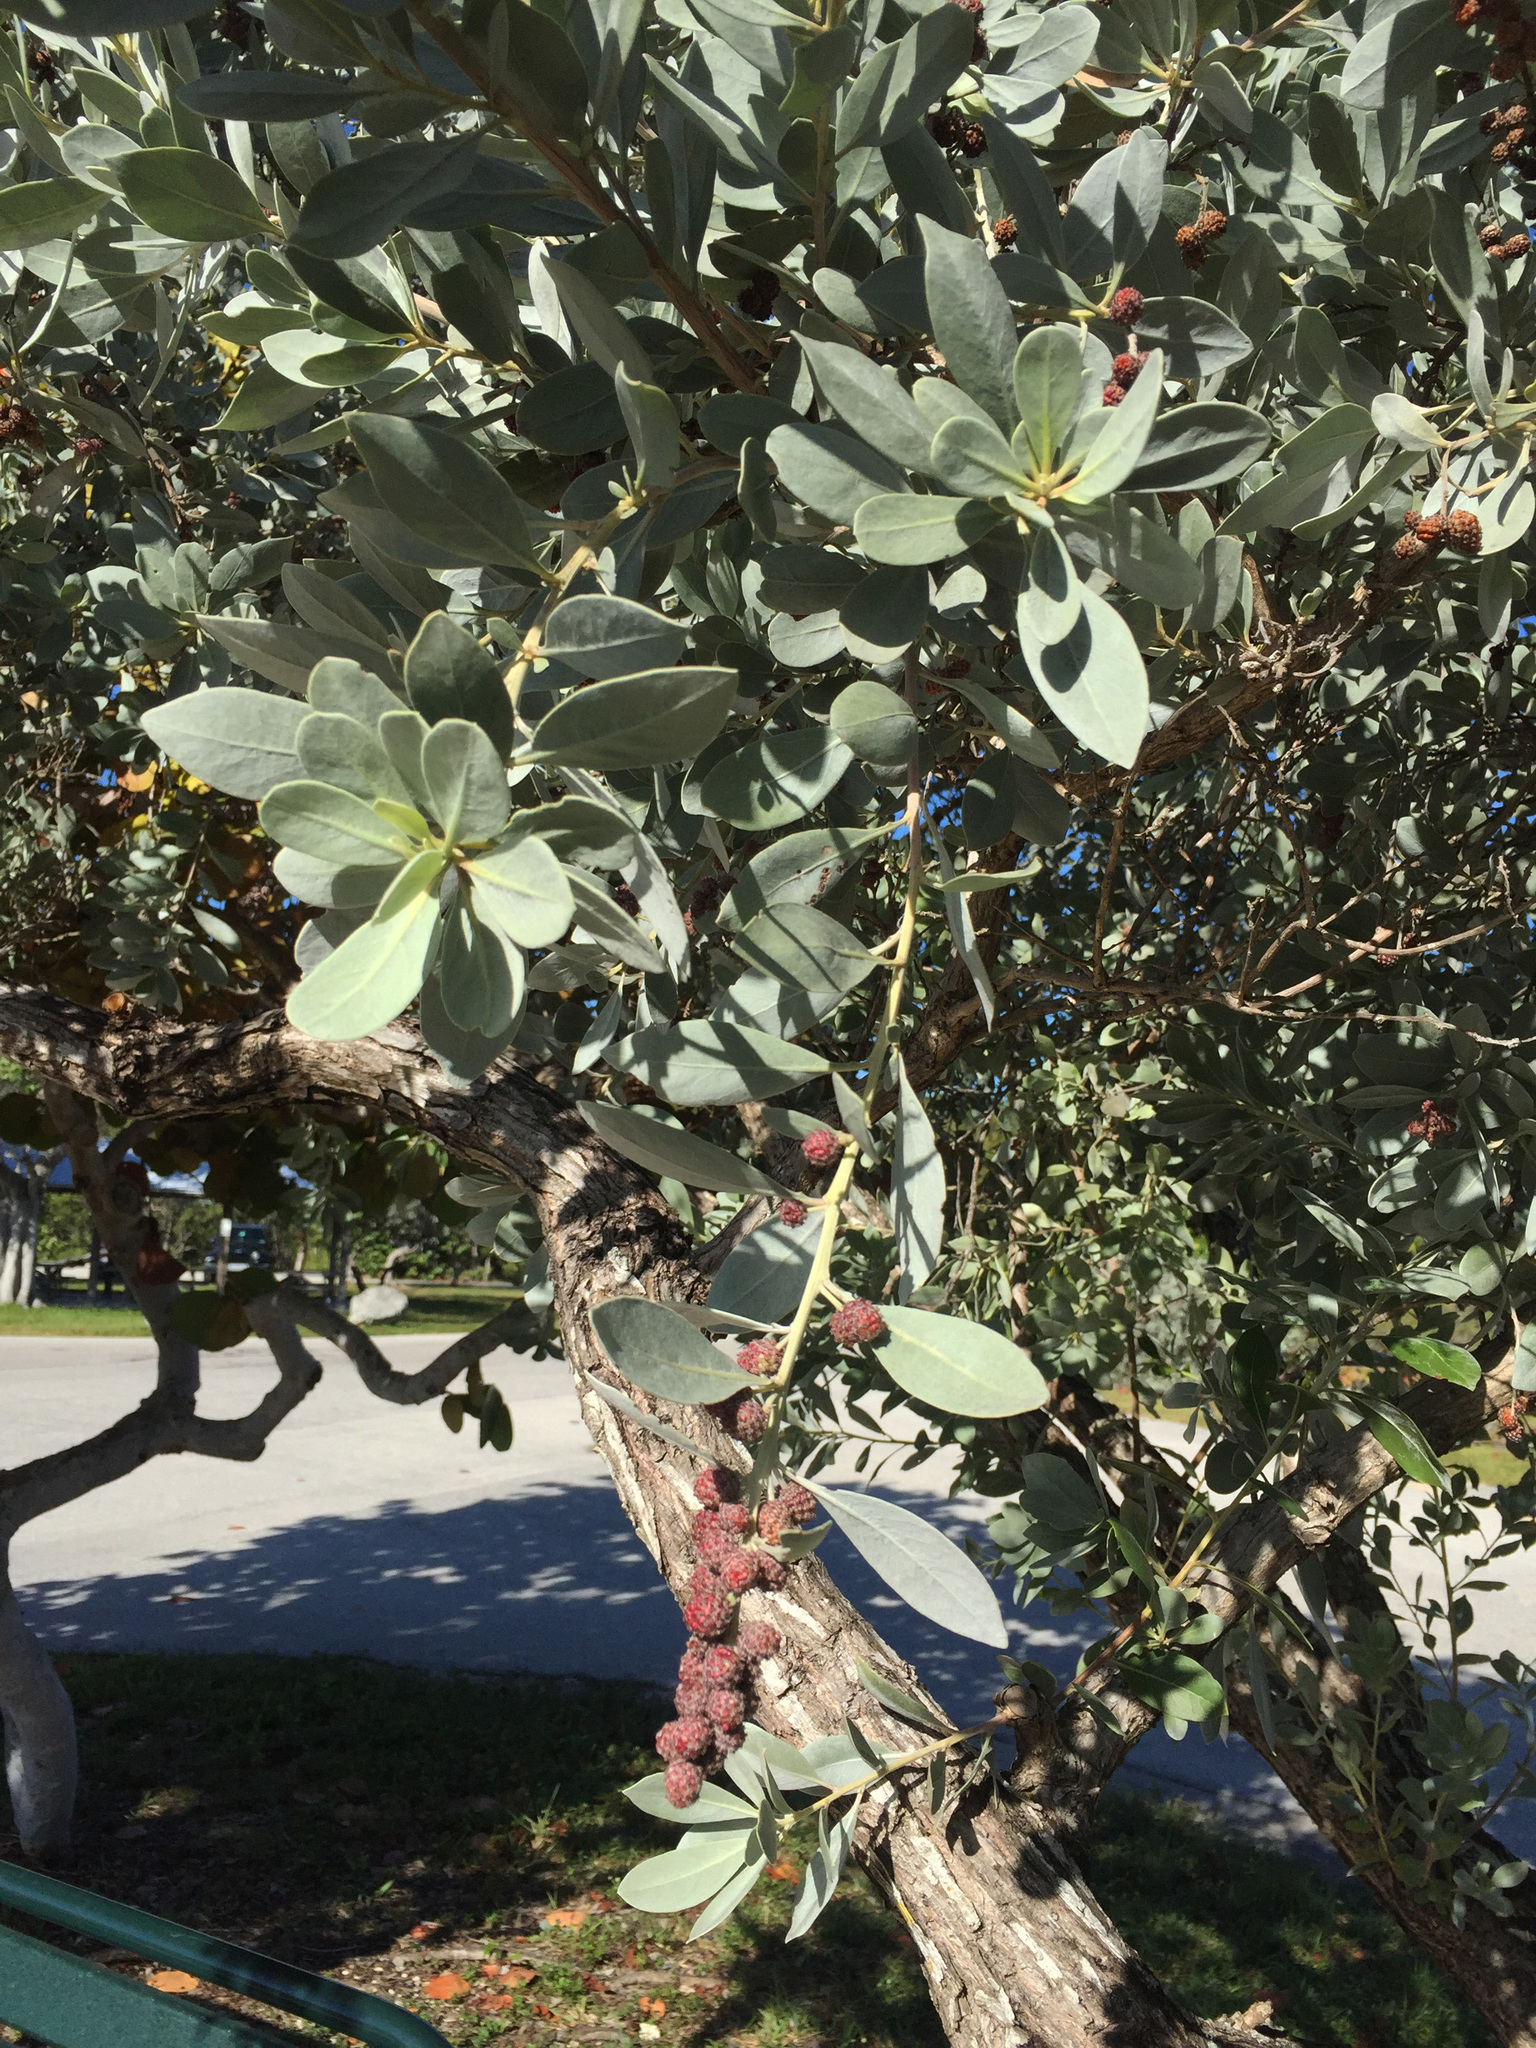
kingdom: Plantae
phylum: Tracheophyta
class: Magnoliopsida
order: Myrtales
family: Combretaceae
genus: Conocarpus
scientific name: Conocarpus erectus
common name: Button mangrove
